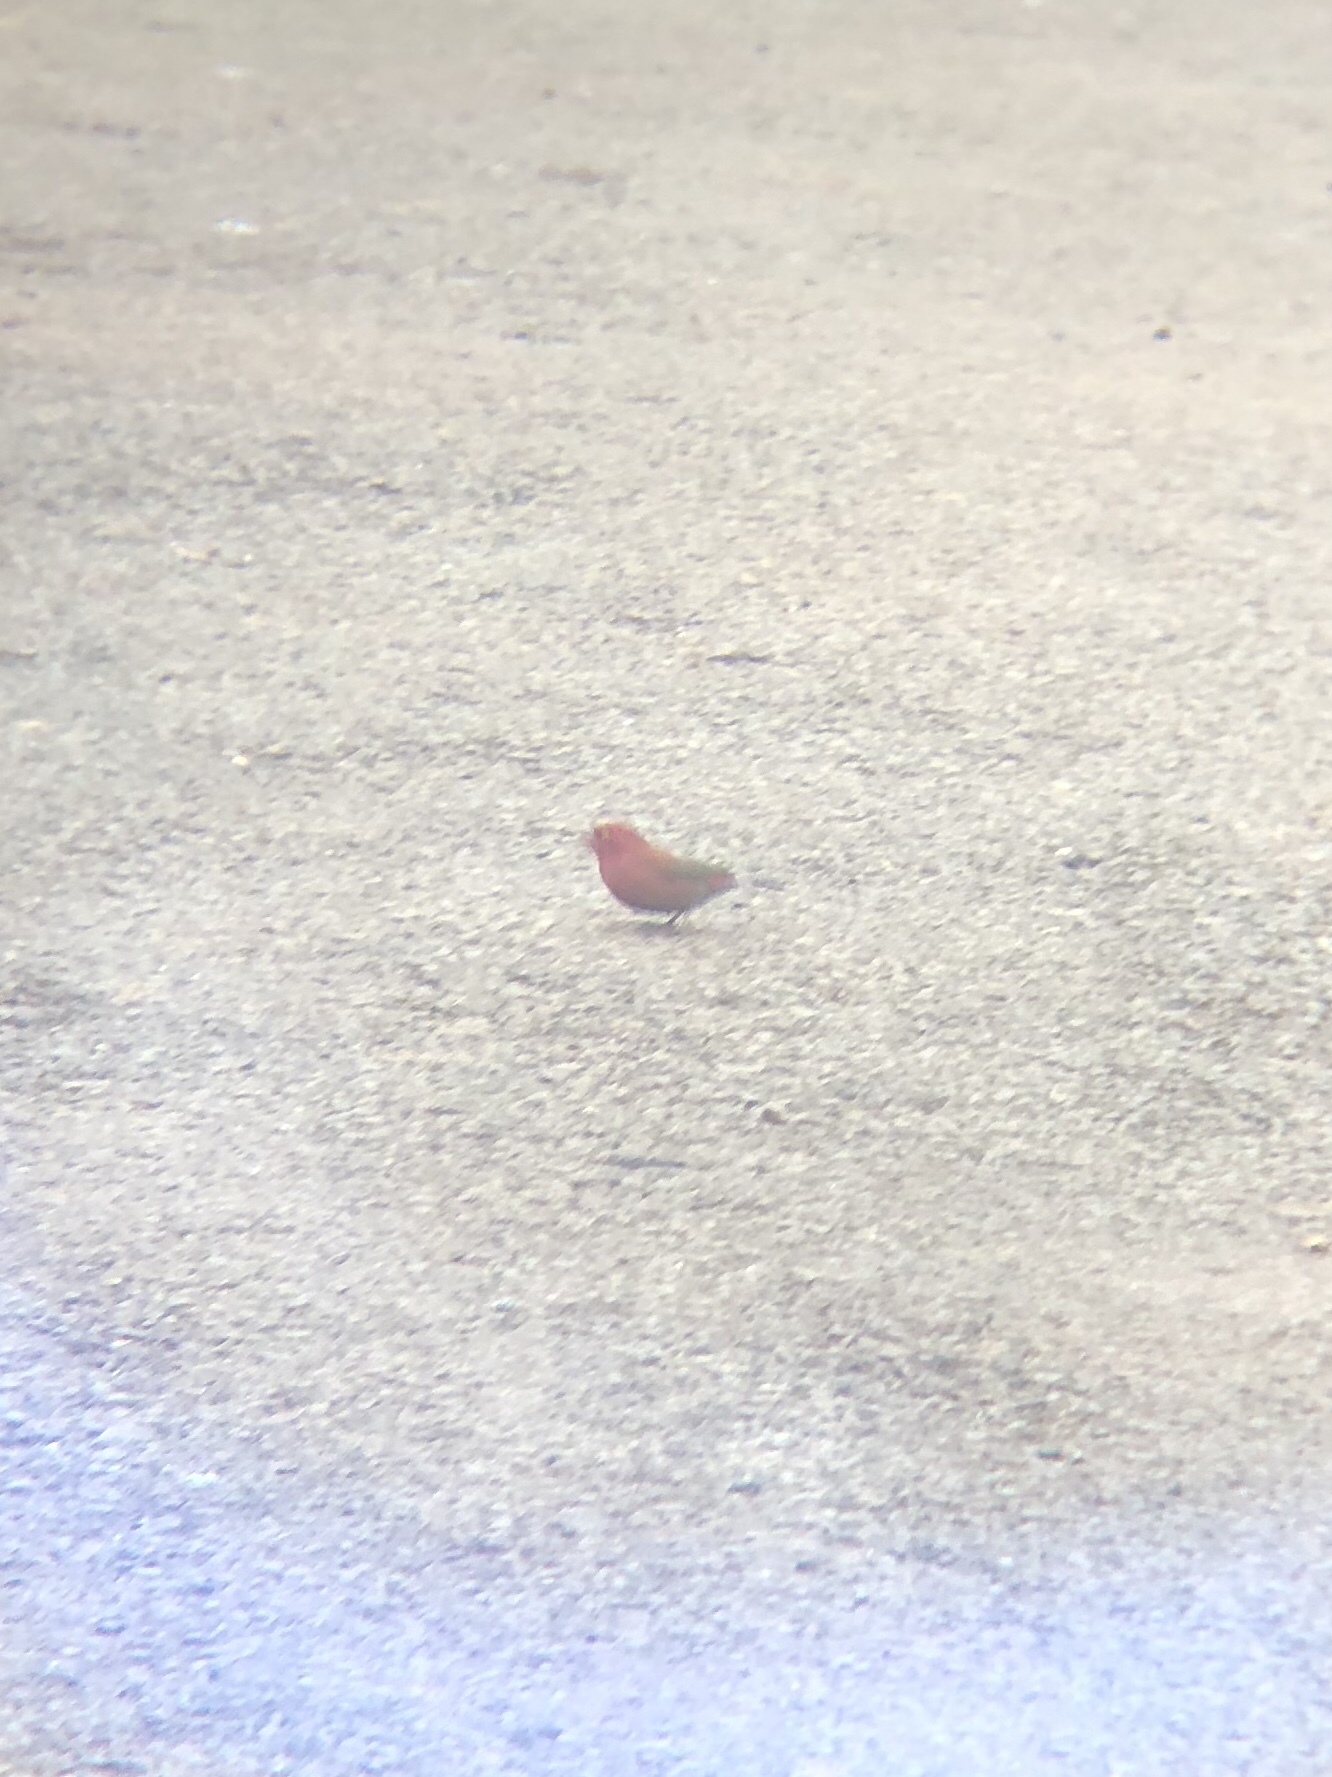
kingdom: Animalia
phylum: Chordata
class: Aves
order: Passeriformes
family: Estrildidae
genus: Lagonosticta
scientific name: Lagonosticta senegala
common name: Red-billed firefinch
